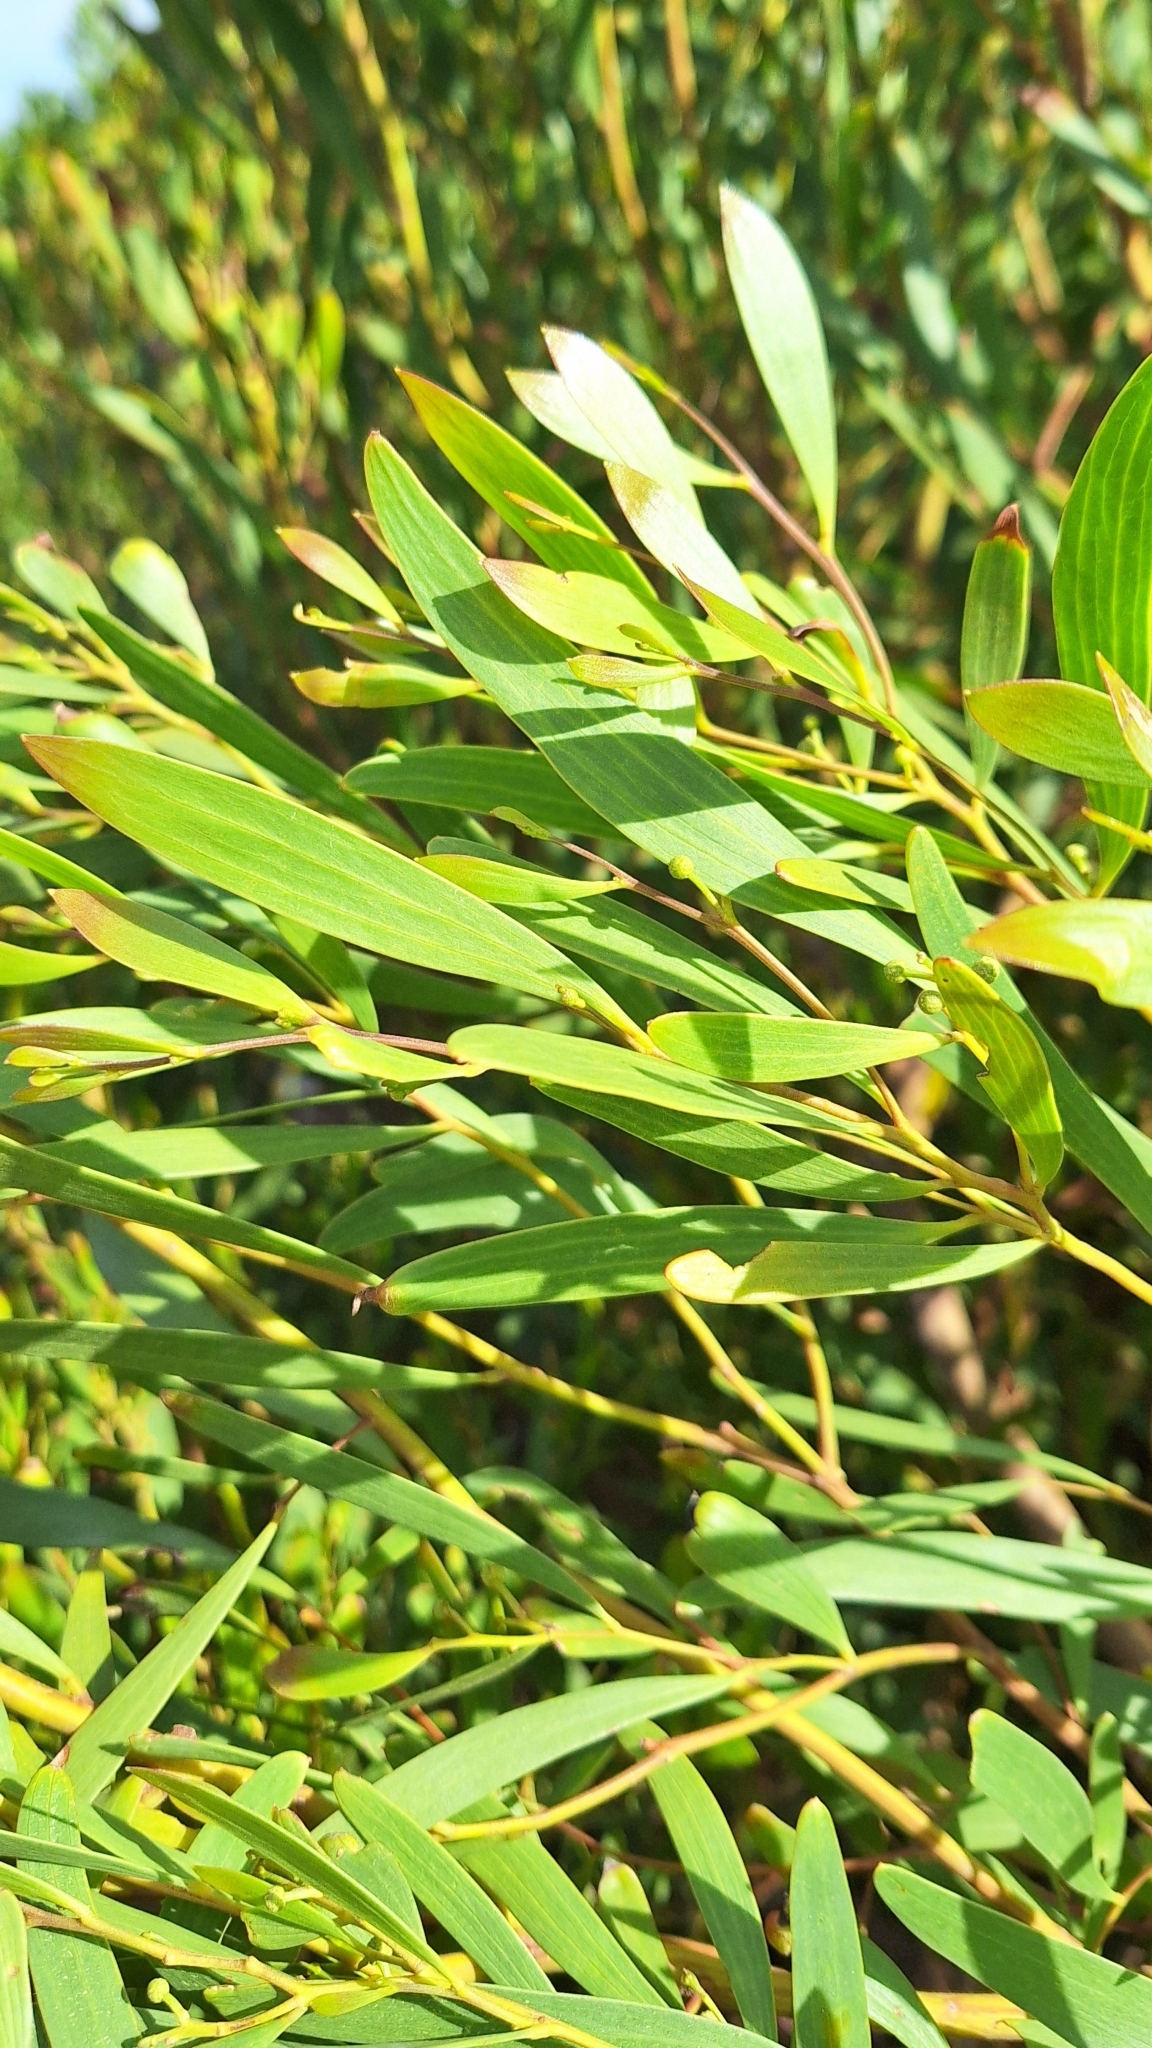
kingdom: Plantae
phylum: Tracheophyta
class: Magnoliopsida
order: Fabales
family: Fabaceae
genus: Acacia
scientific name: Acacia cyclops
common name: Coastal wattle
